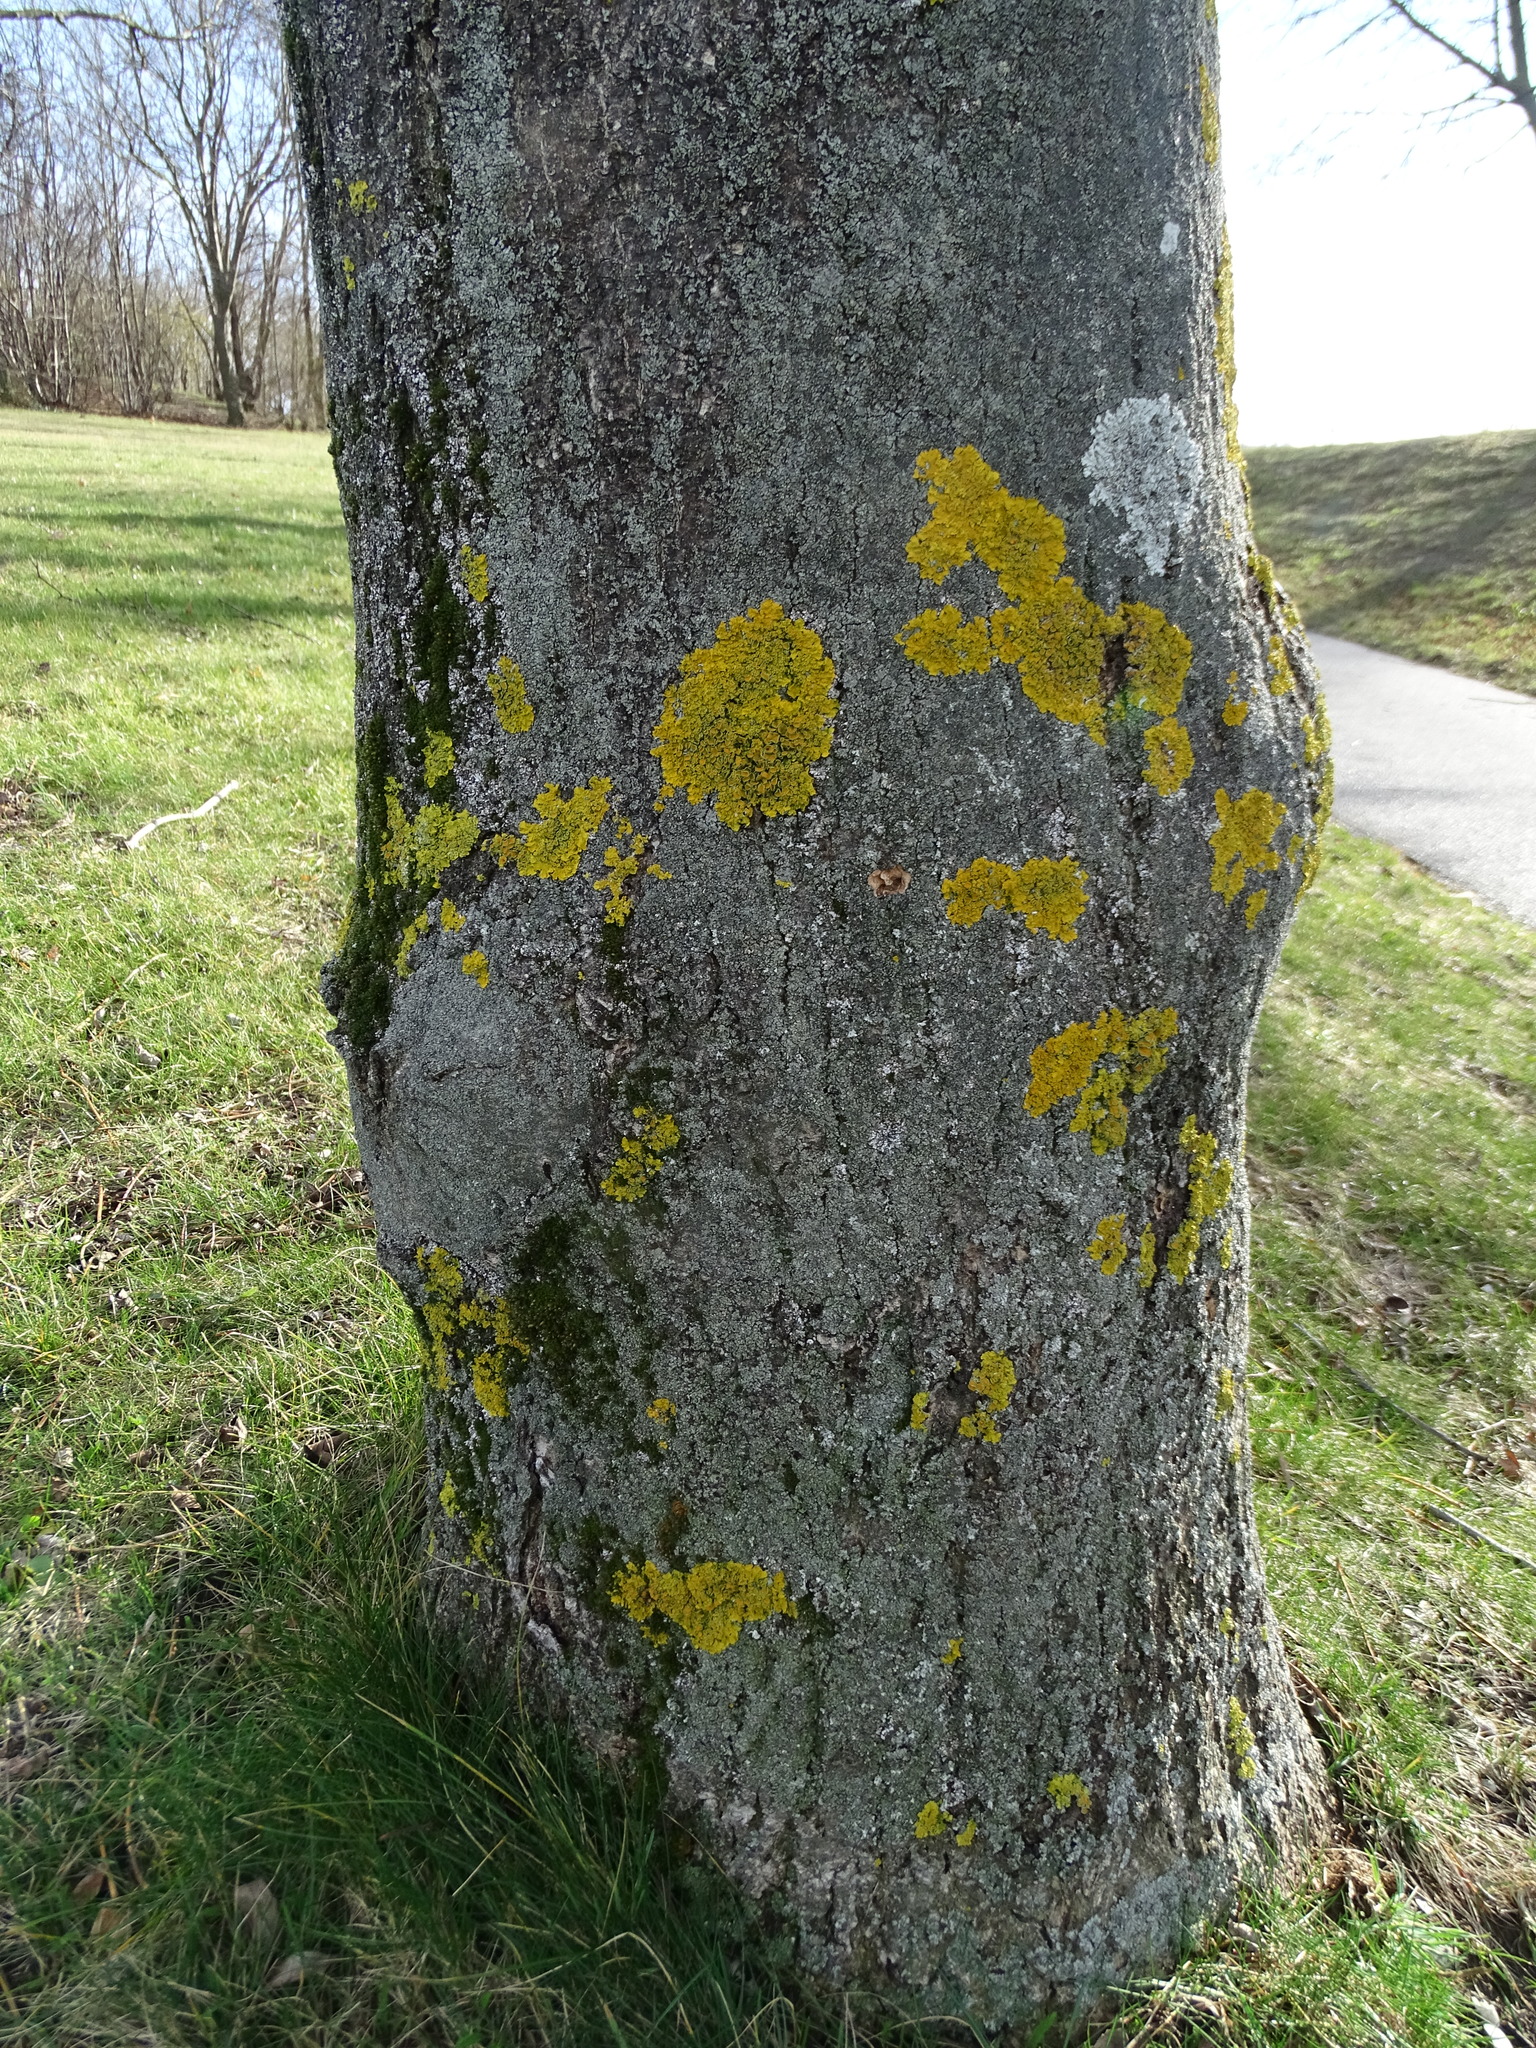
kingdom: Fungi
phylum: Ascomycota
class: Lecanoromycetes
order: Teloschistales
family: Teloschistaceae
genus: Xanthoria
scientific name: Xanthoria parietina
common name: Common orange lichen
